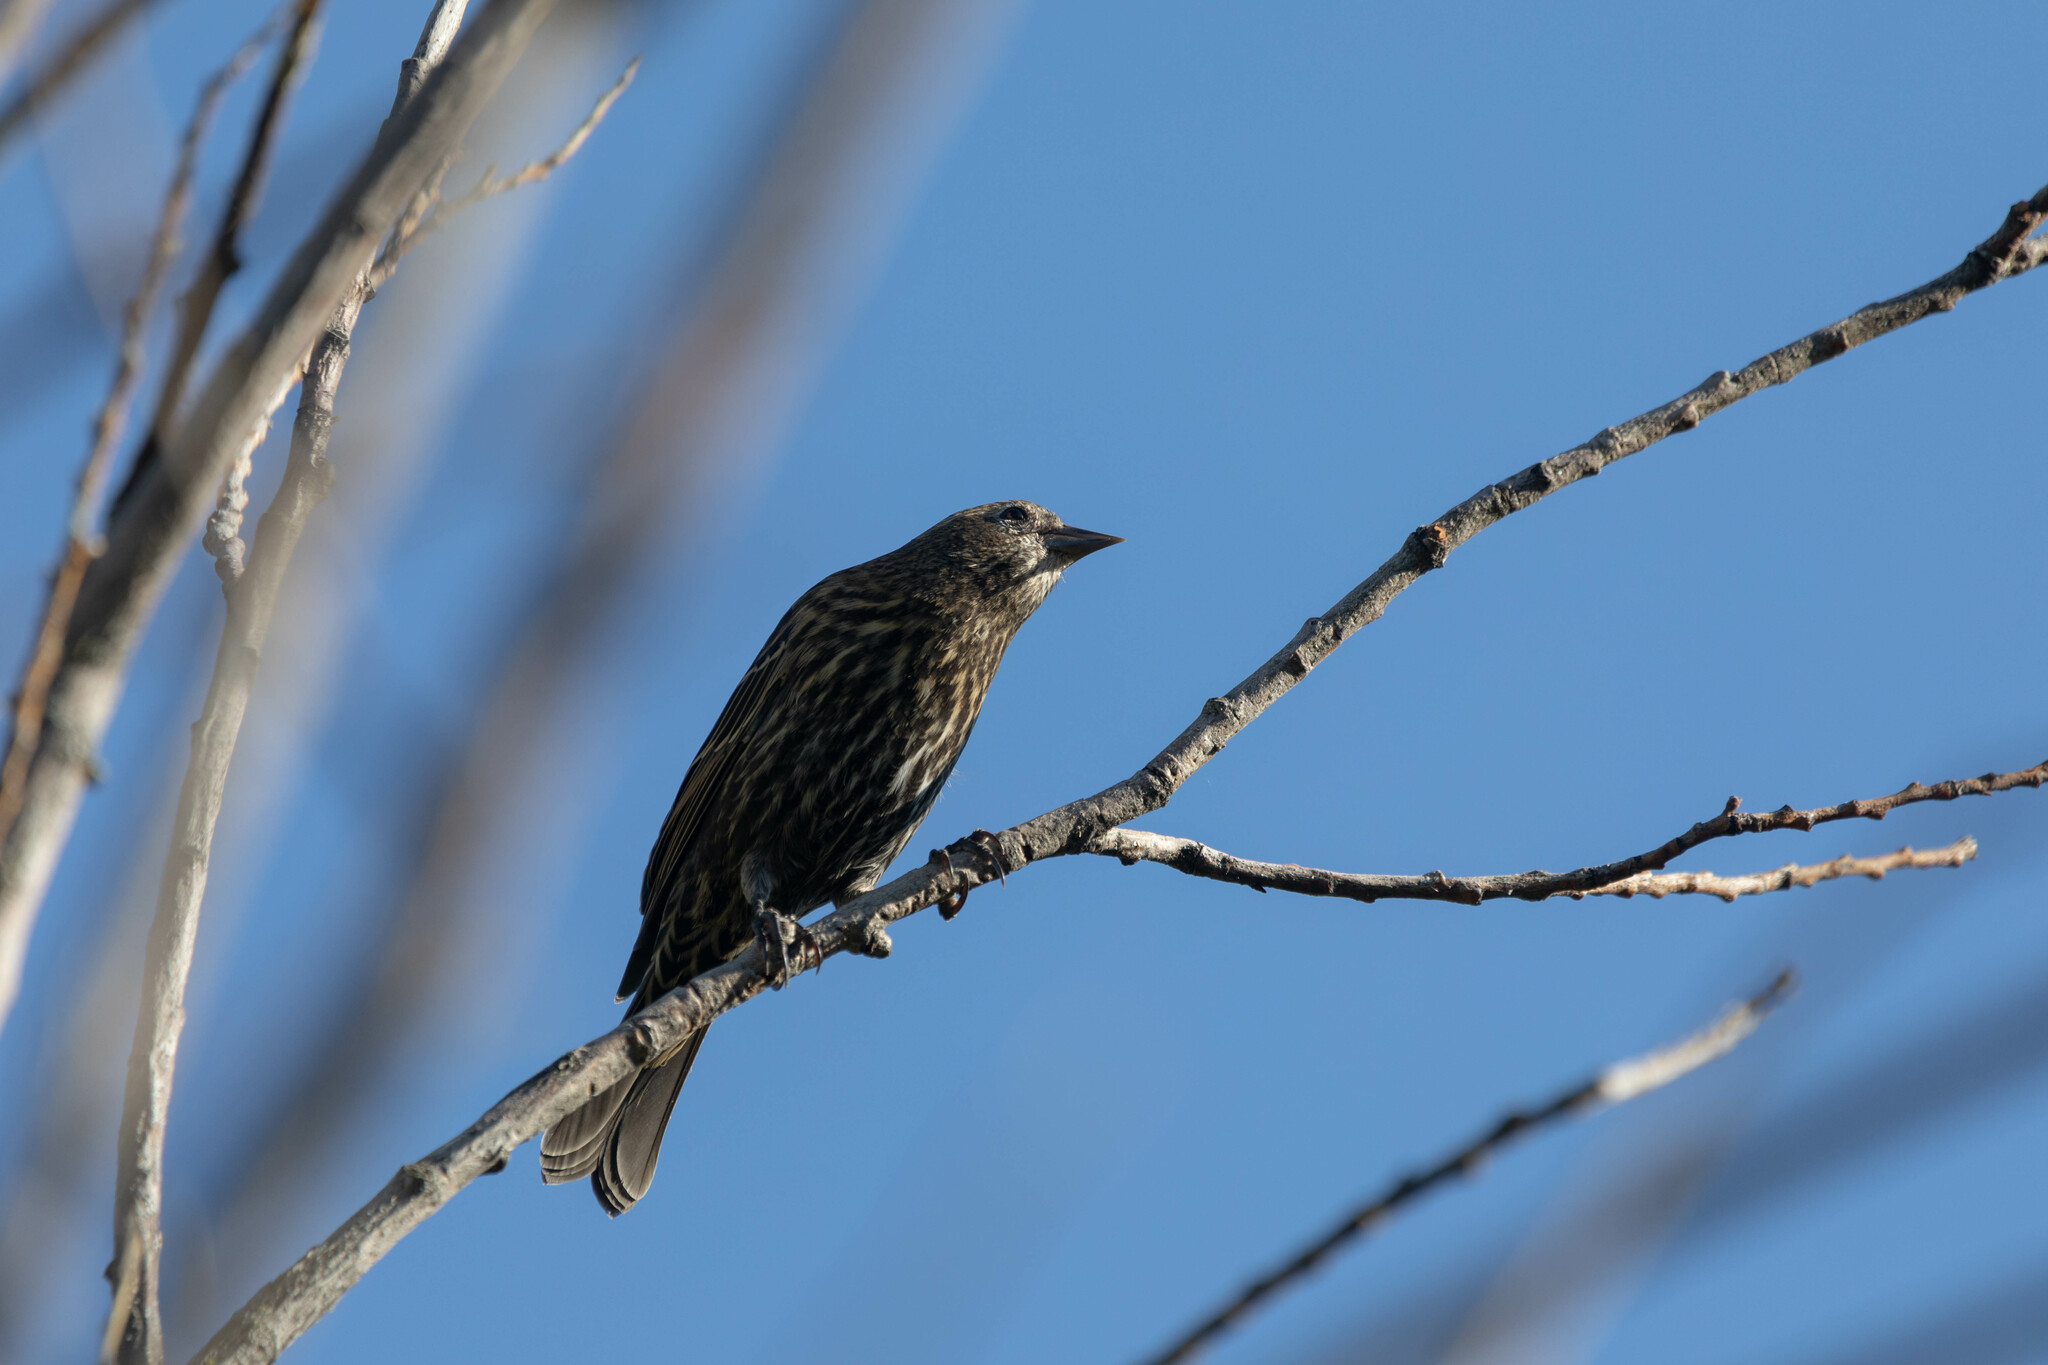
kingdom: Animalia
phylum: Chordata
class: Aves
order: Passeriformes
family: Icteridae
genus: Agelaius
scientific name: Agelaius phoeniceus
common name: Red-winged blackbird
